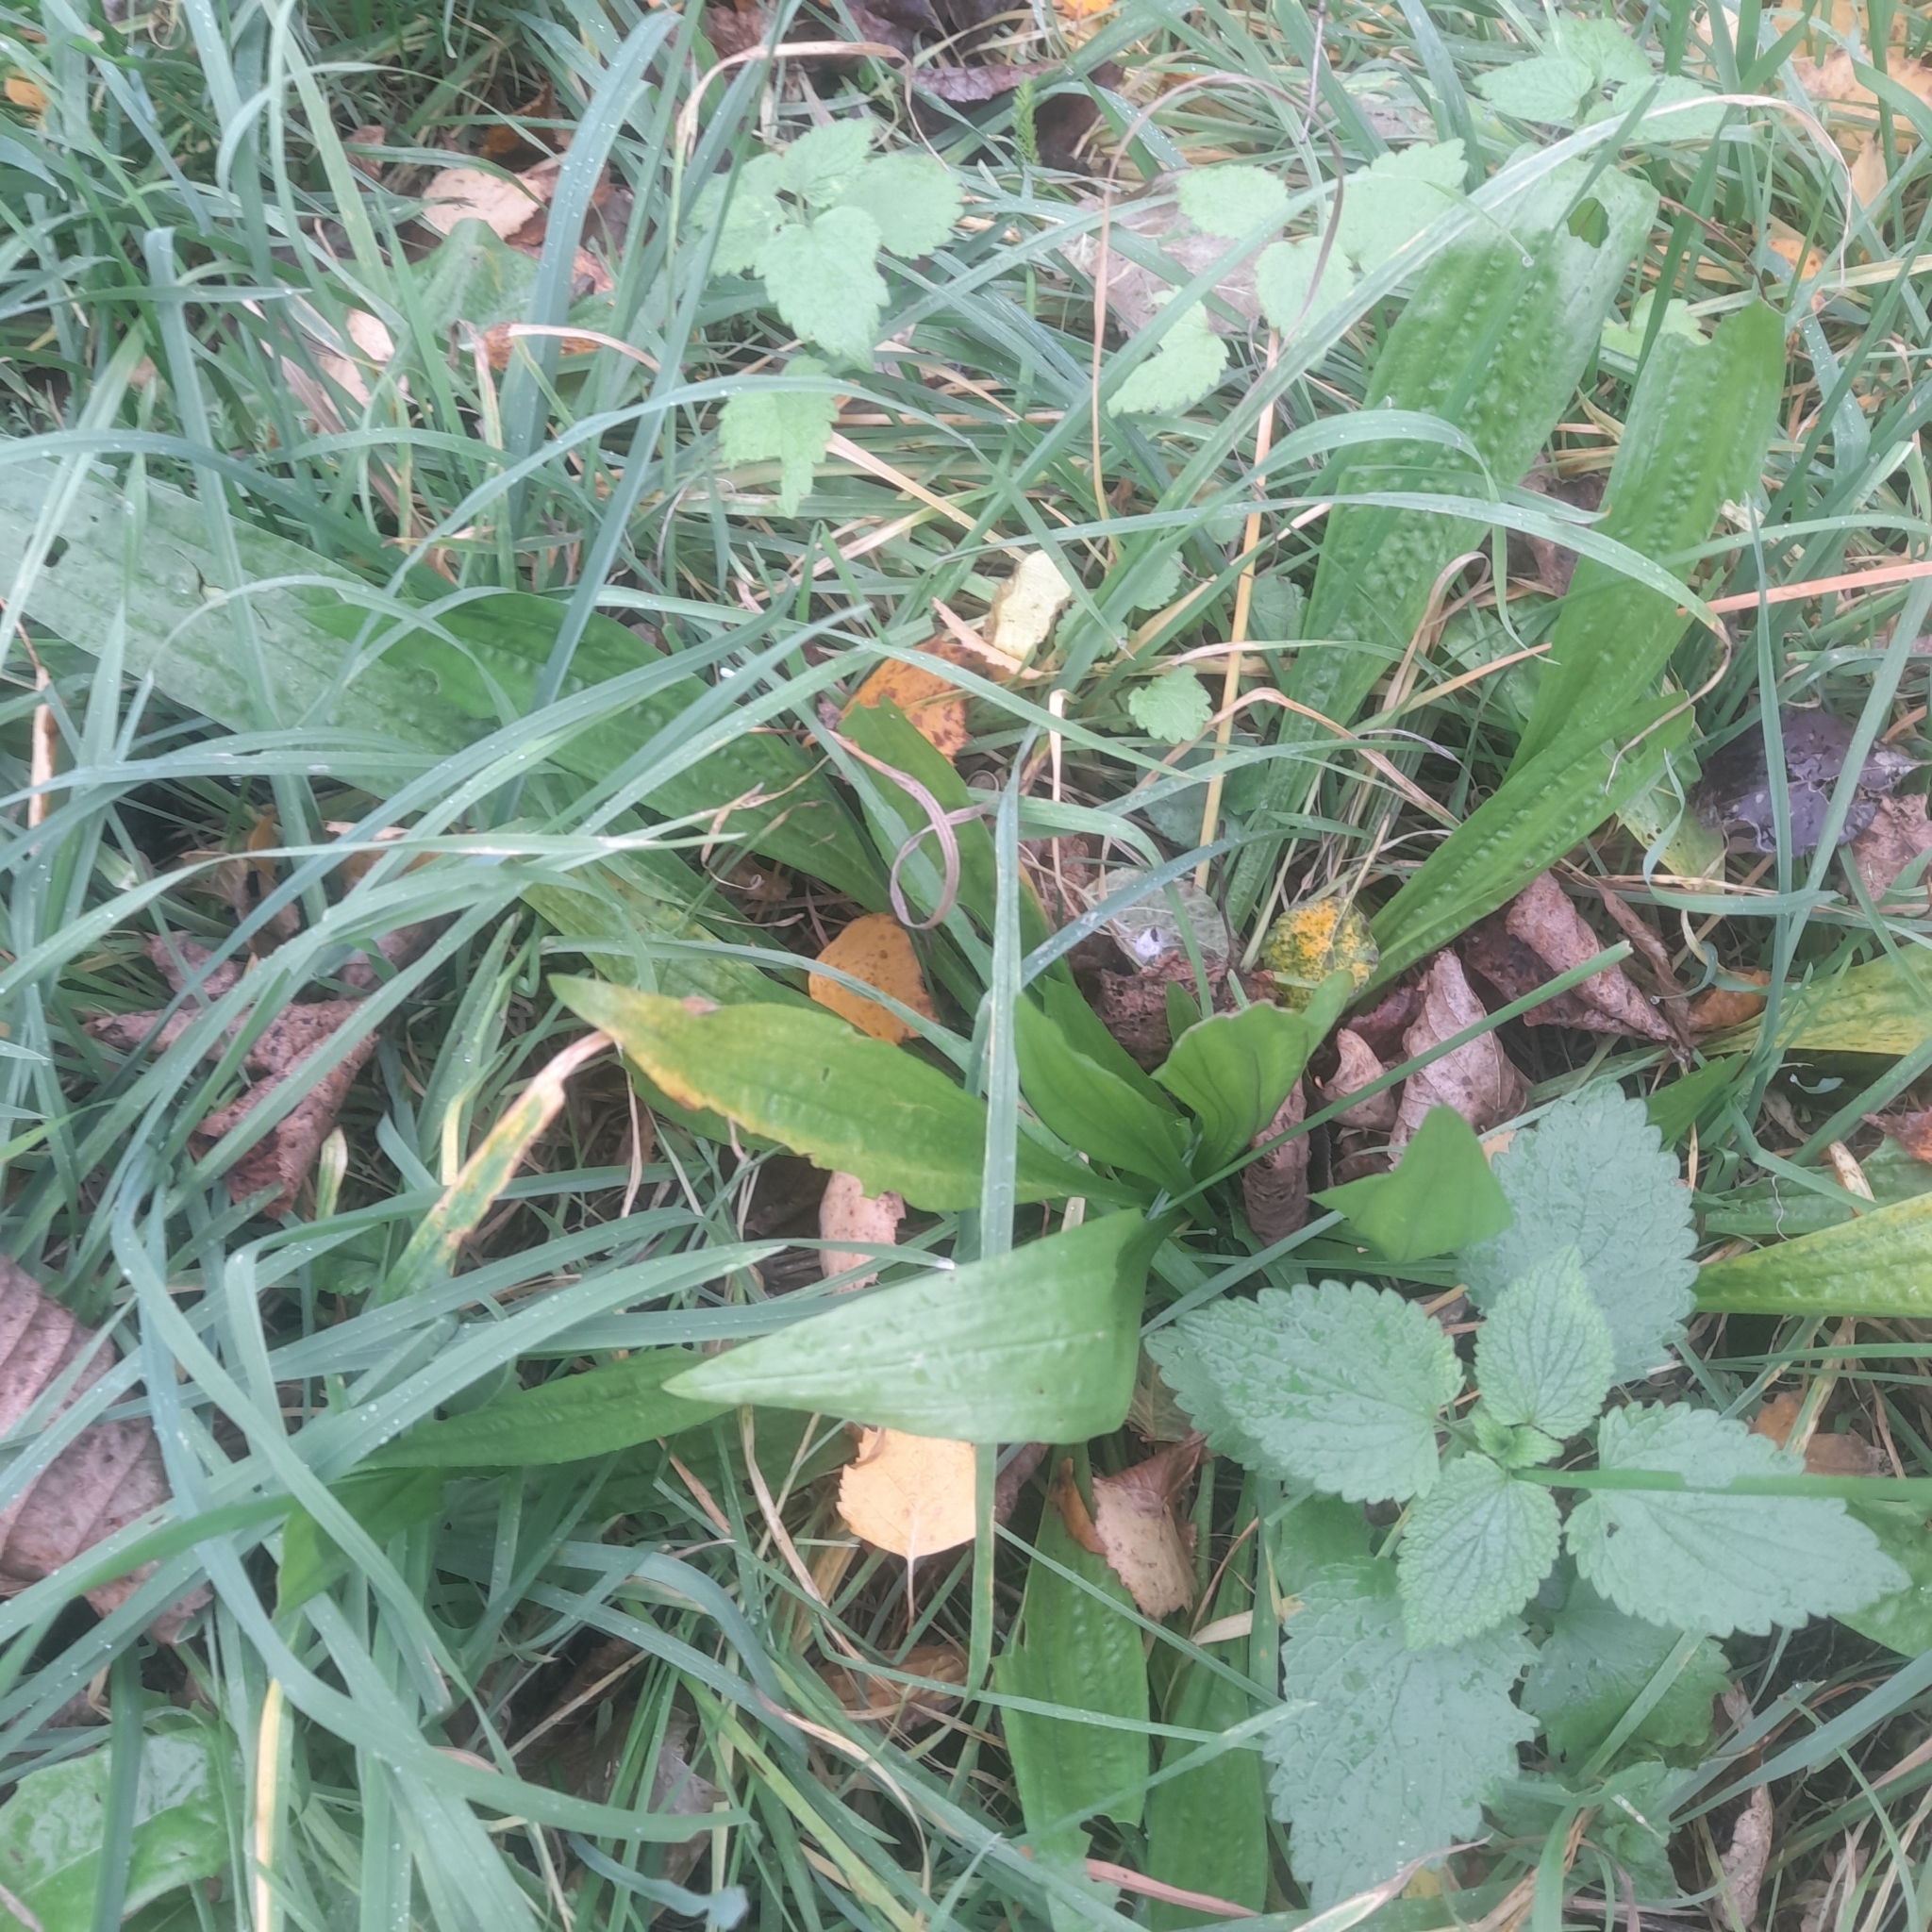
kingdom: Plantae
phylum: Tracheophyta
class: Magnoliopsida
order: Lamiales
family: Plantaginaceae
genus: Plantago
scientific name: Plantago lanceolata
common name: Ribwort plantain
